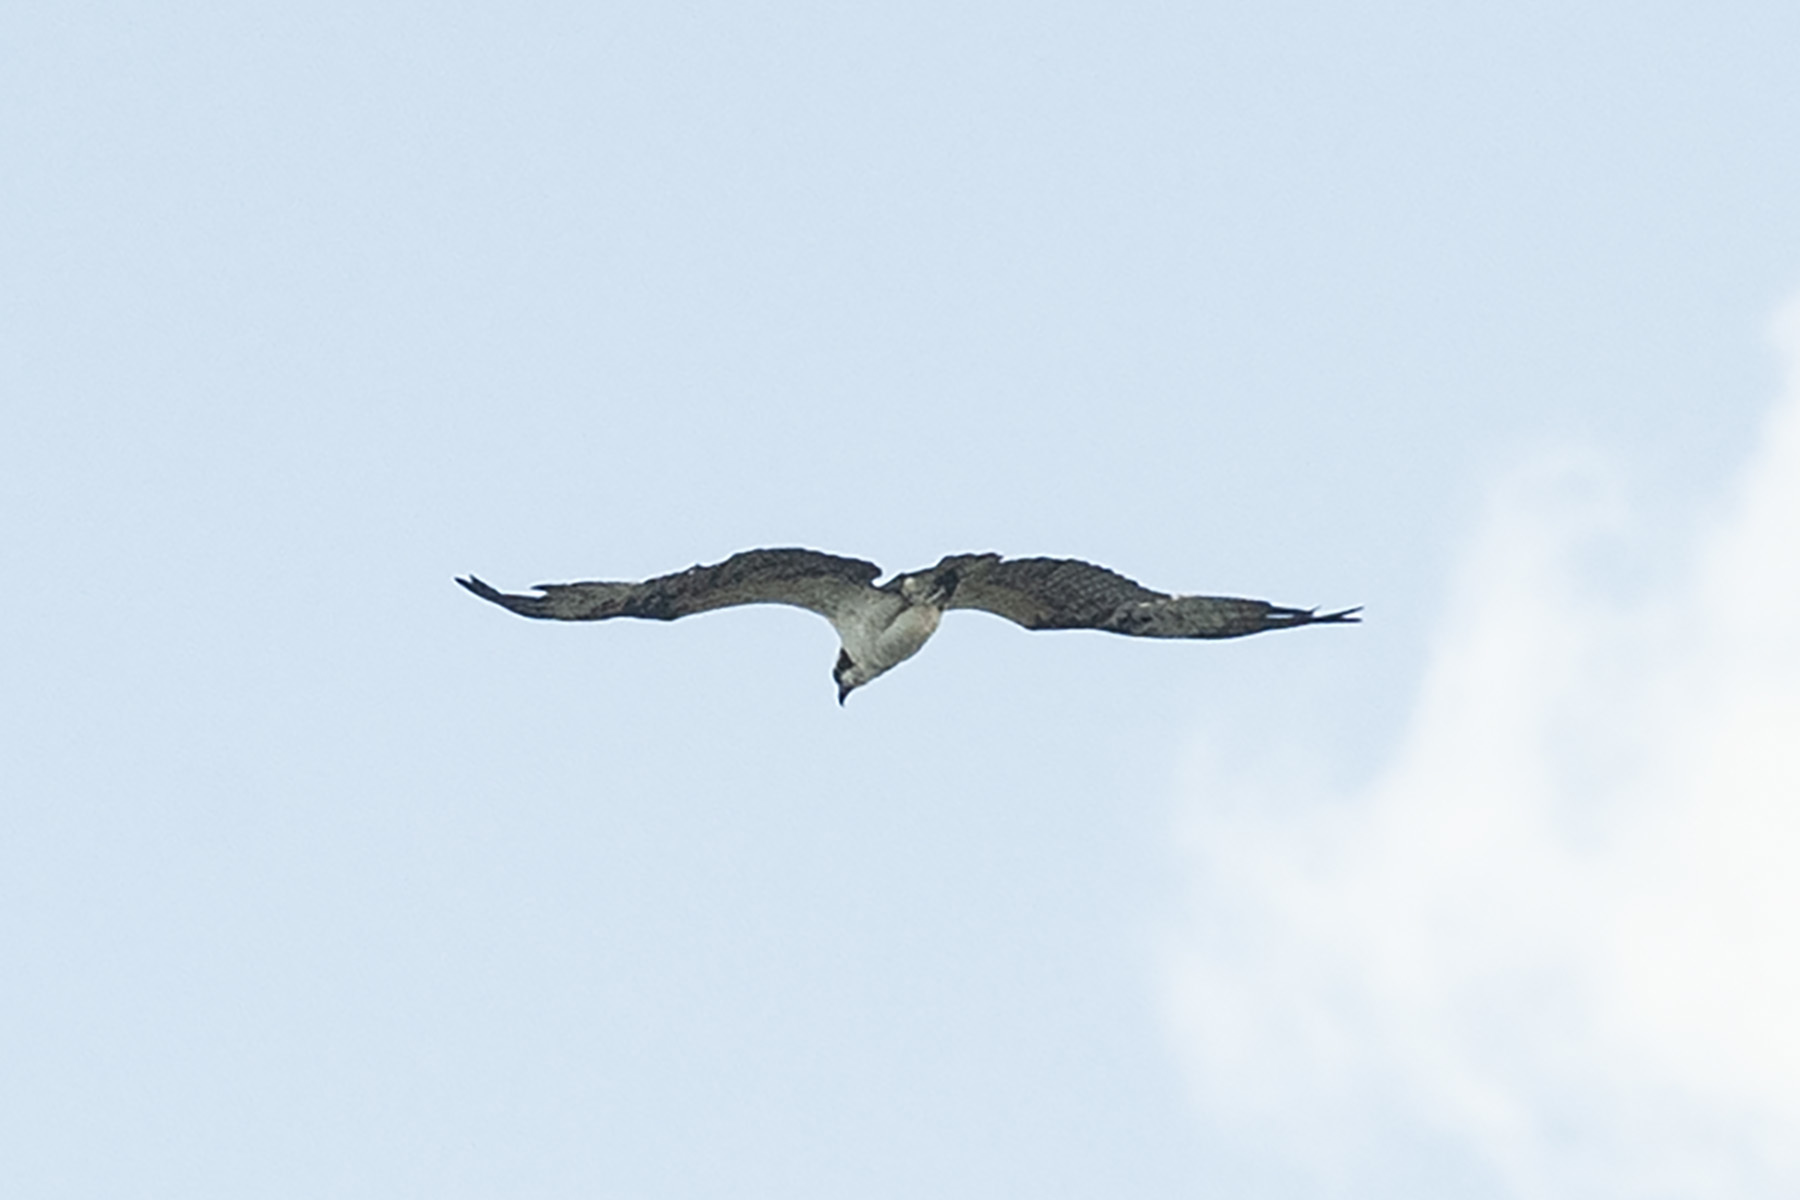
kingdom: Animalia
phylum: Chordata
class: Aves
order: Accipitriformes
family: Pandionidae
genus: Pandion
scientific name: Pandion haliaetus
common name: Osprey
